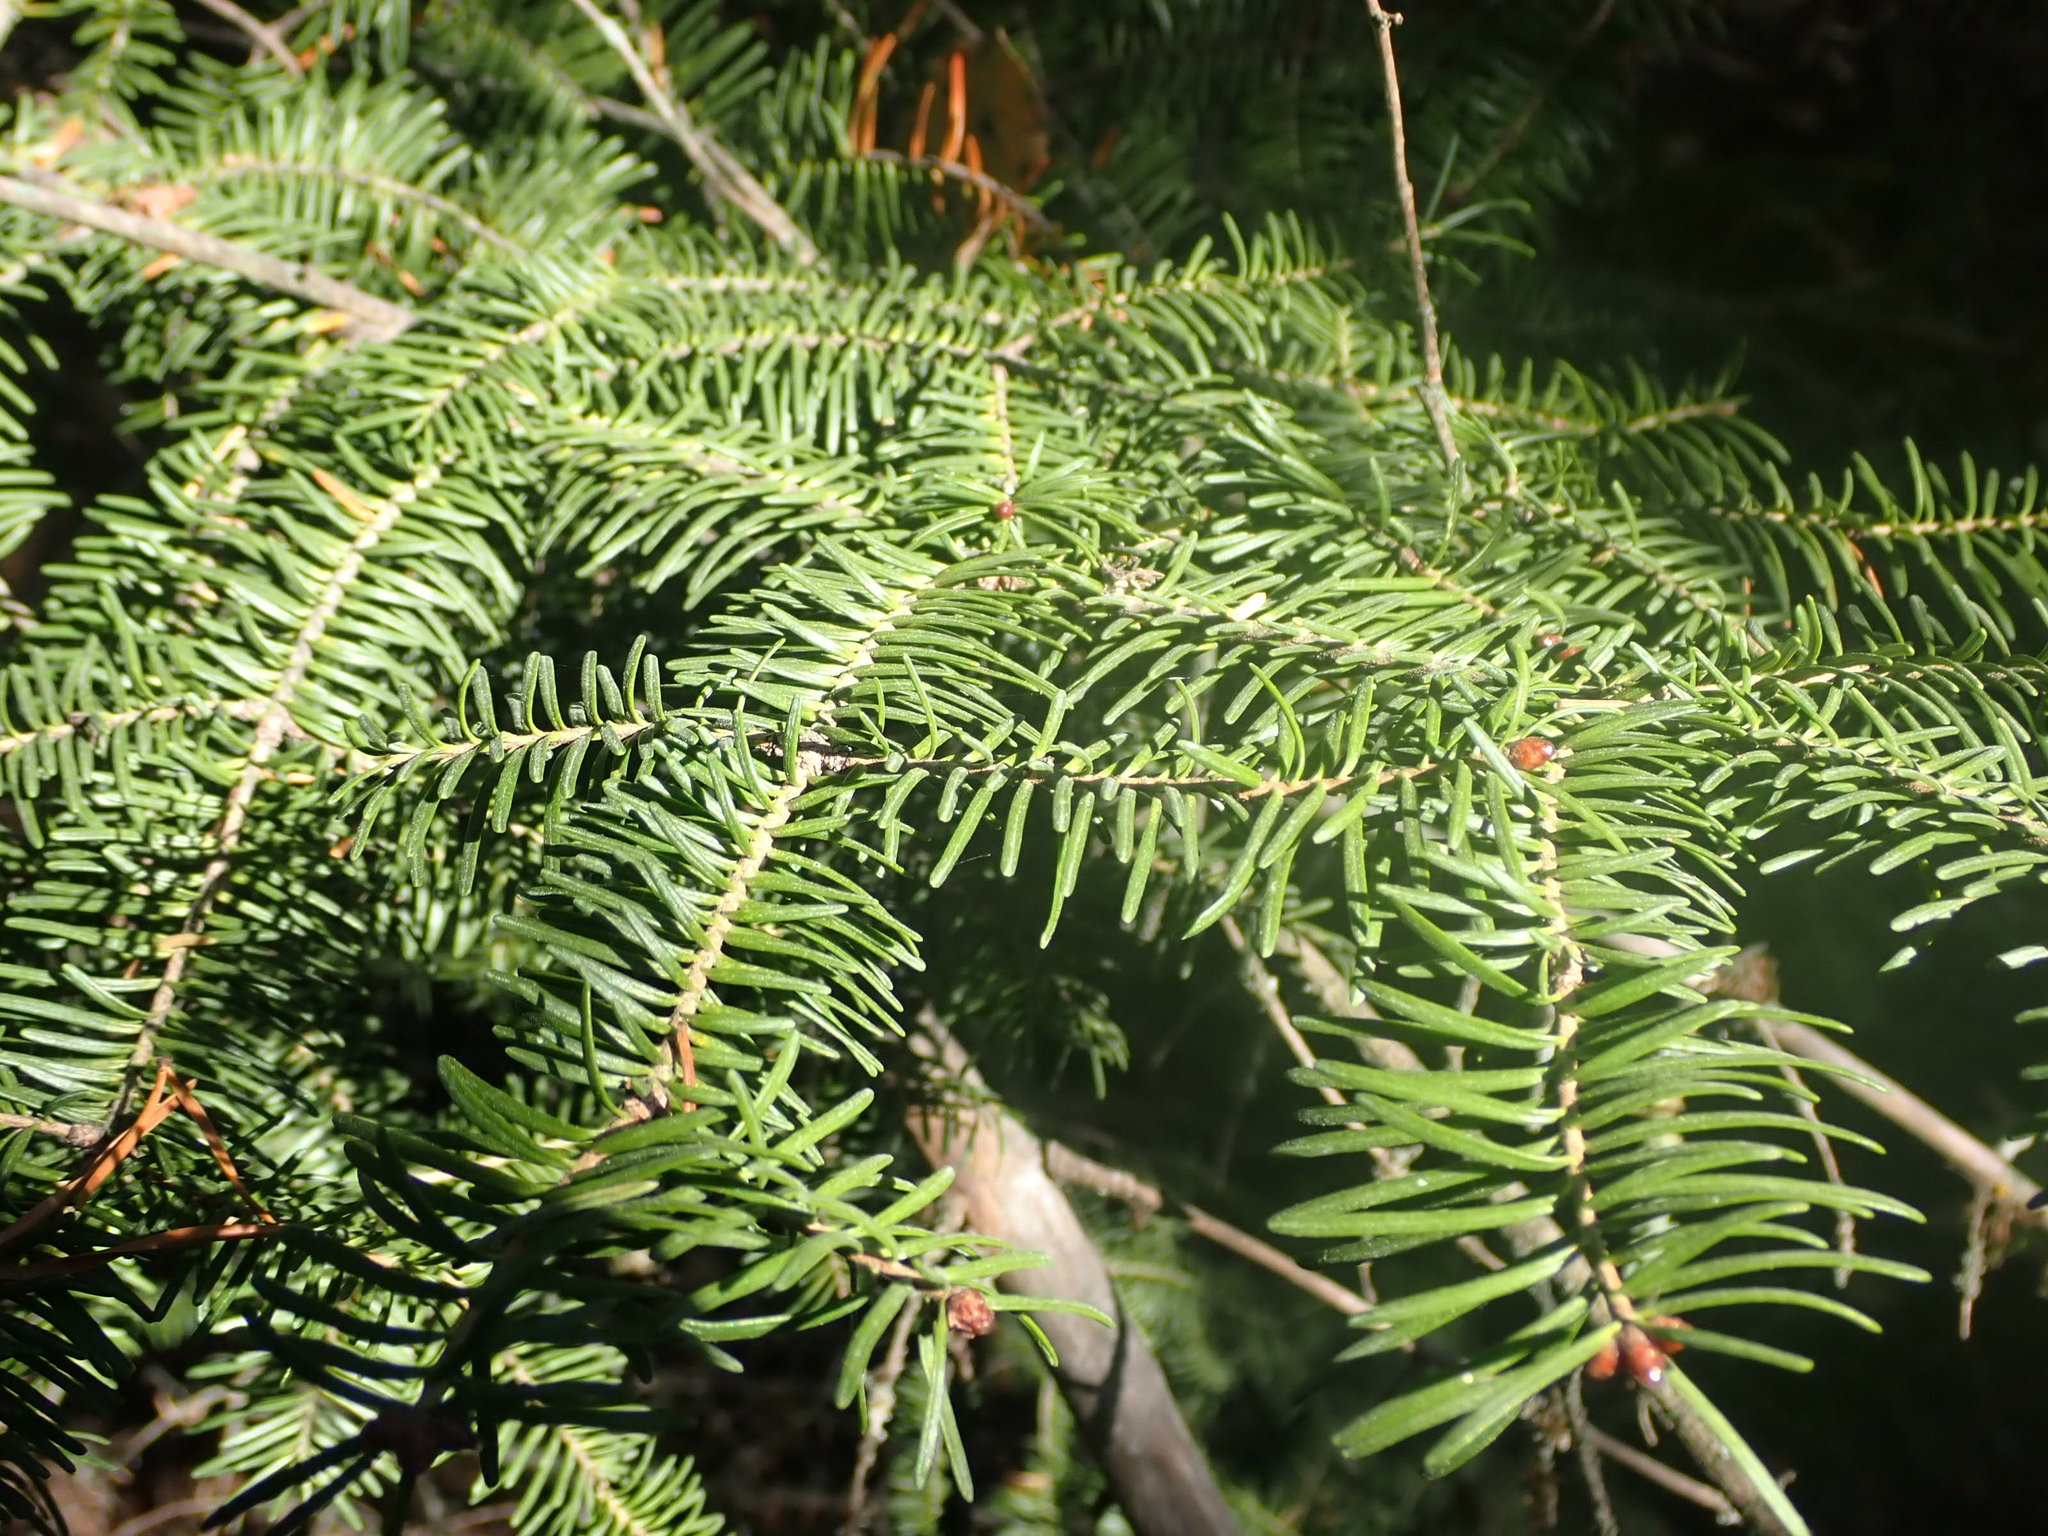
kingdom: Plantae
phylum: Tracheophyta
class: Pinopsida
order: Pinales
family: Pinaceae
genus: Abies
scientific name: Abies balsamea
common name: Balsam fir
